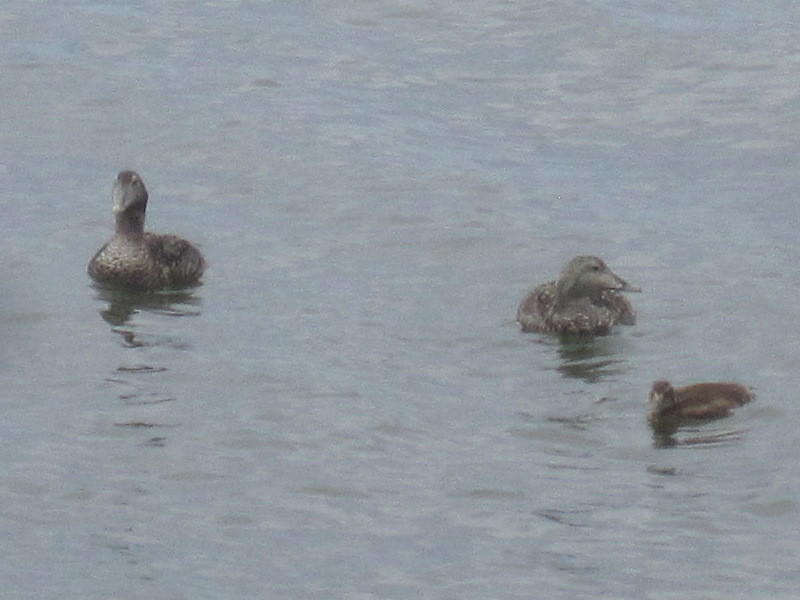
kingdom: Animalia
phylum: Chordata
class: Aves
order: Anseriformes
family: Anatidae
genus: Somateria
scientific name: Somateria mollissima
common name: Common eider
